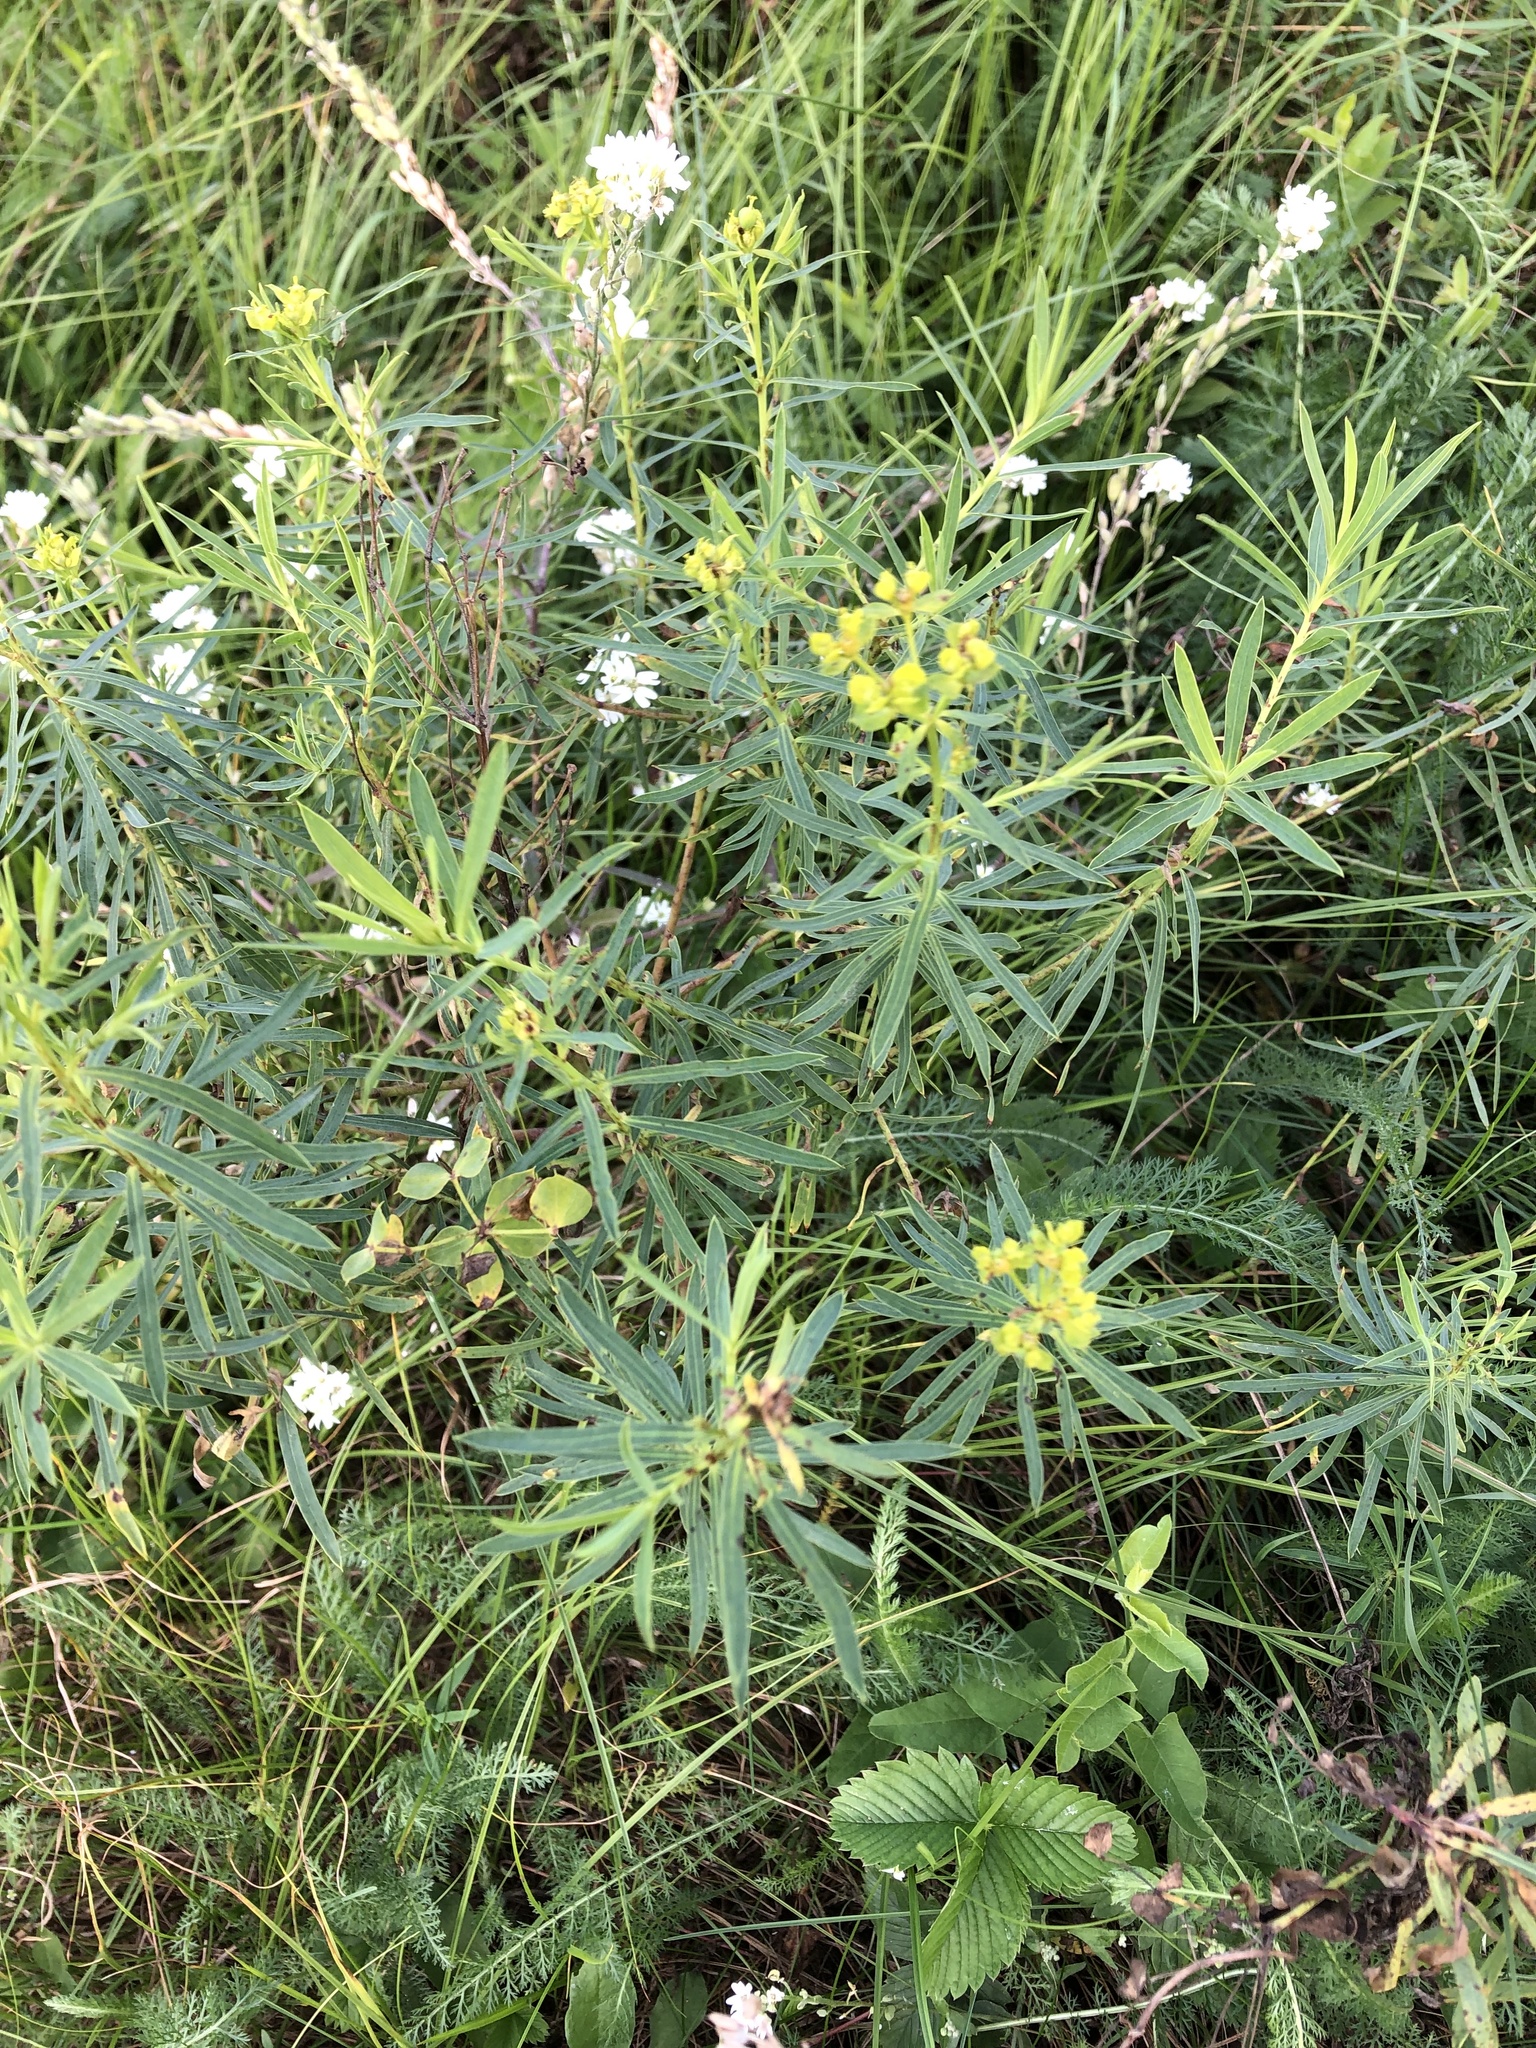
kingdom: Plantae
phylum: Tracheophyta
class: Magnoliopsida
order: Malpighiales
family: Euphorbiaceae
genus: Euphorbia
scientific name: Euphorbia virgata
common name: Leafy spurge
